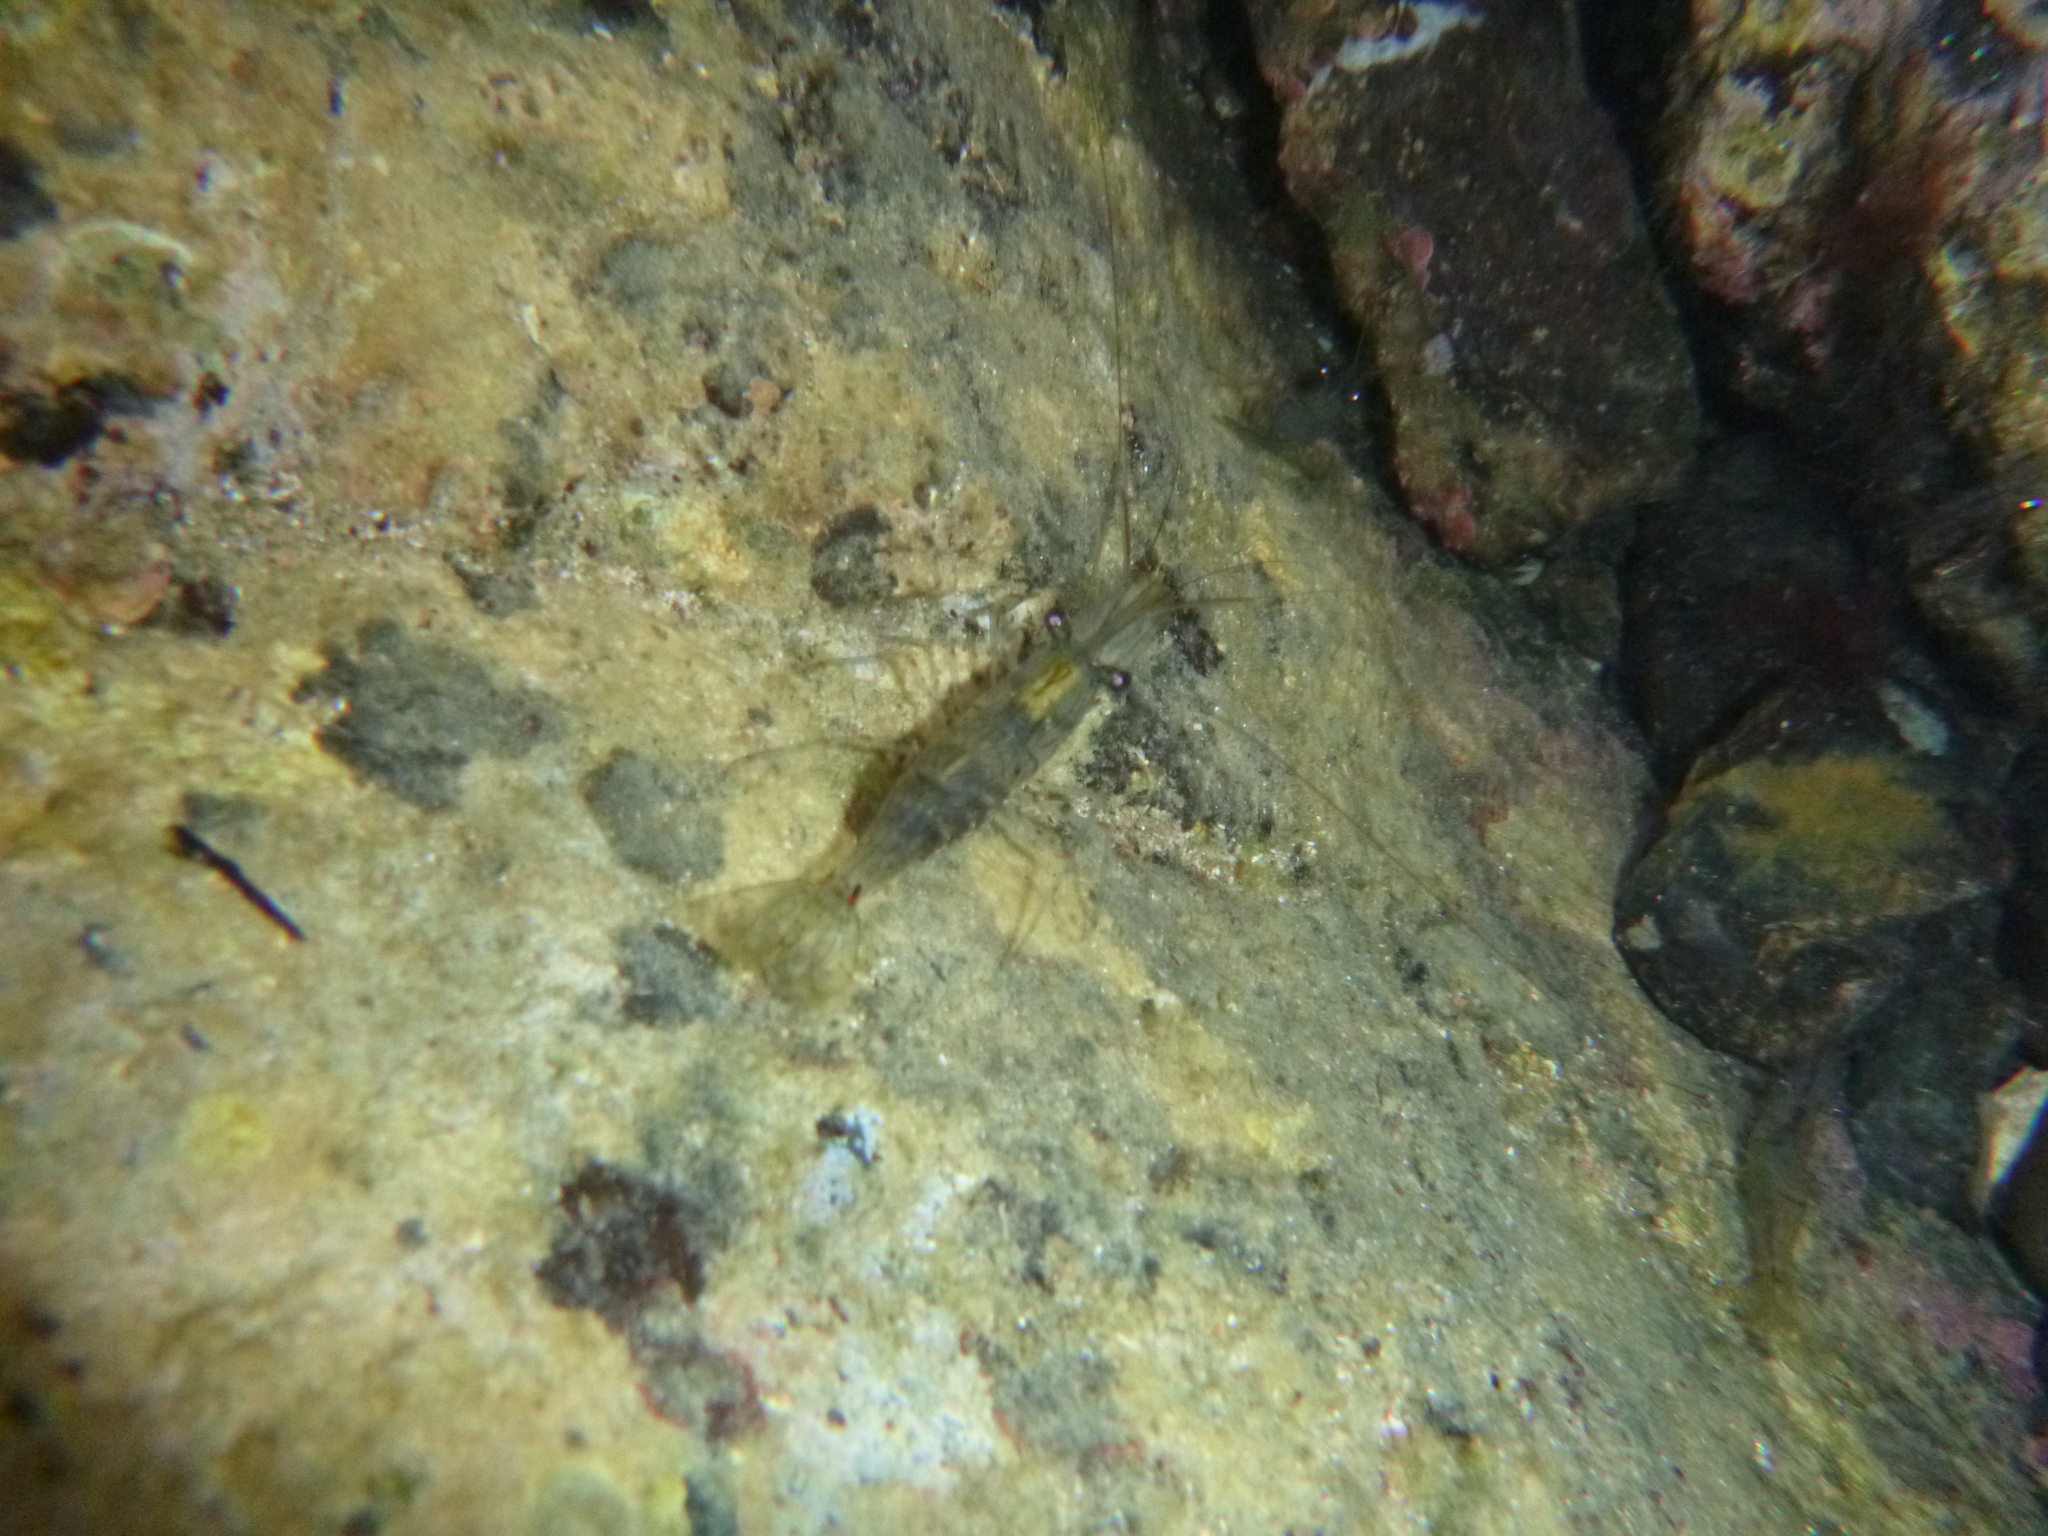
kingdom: Animalia
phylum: Arthropoda
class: Malacostraca
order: Decapoda
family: Palaemonidae
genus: Palaemon
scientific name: Palaemon affinis
